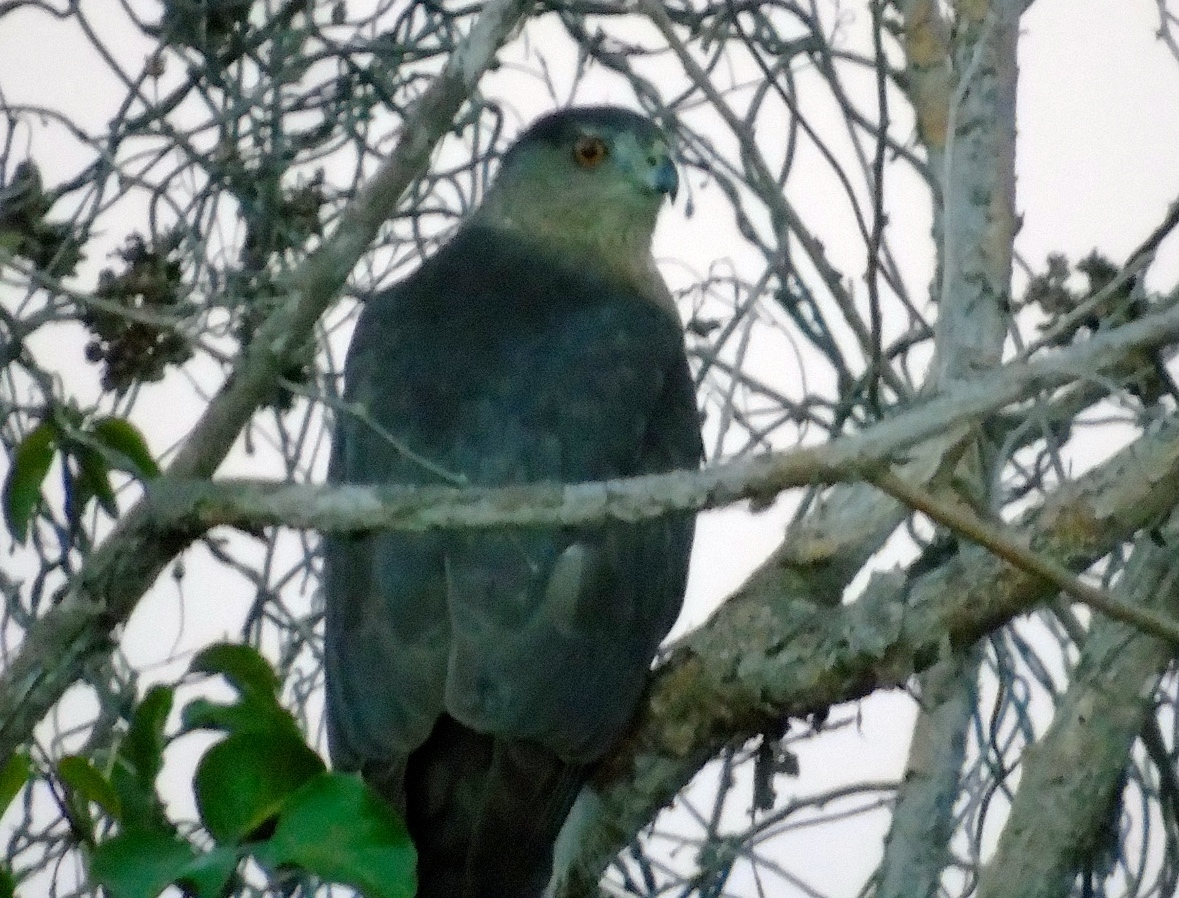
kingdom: Animalia
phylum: Chordata
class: Aves
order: Accipitriformes
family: Accipitridae
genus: Accipiter
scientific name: Accipiter cooperii
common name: Cooper's hawk
